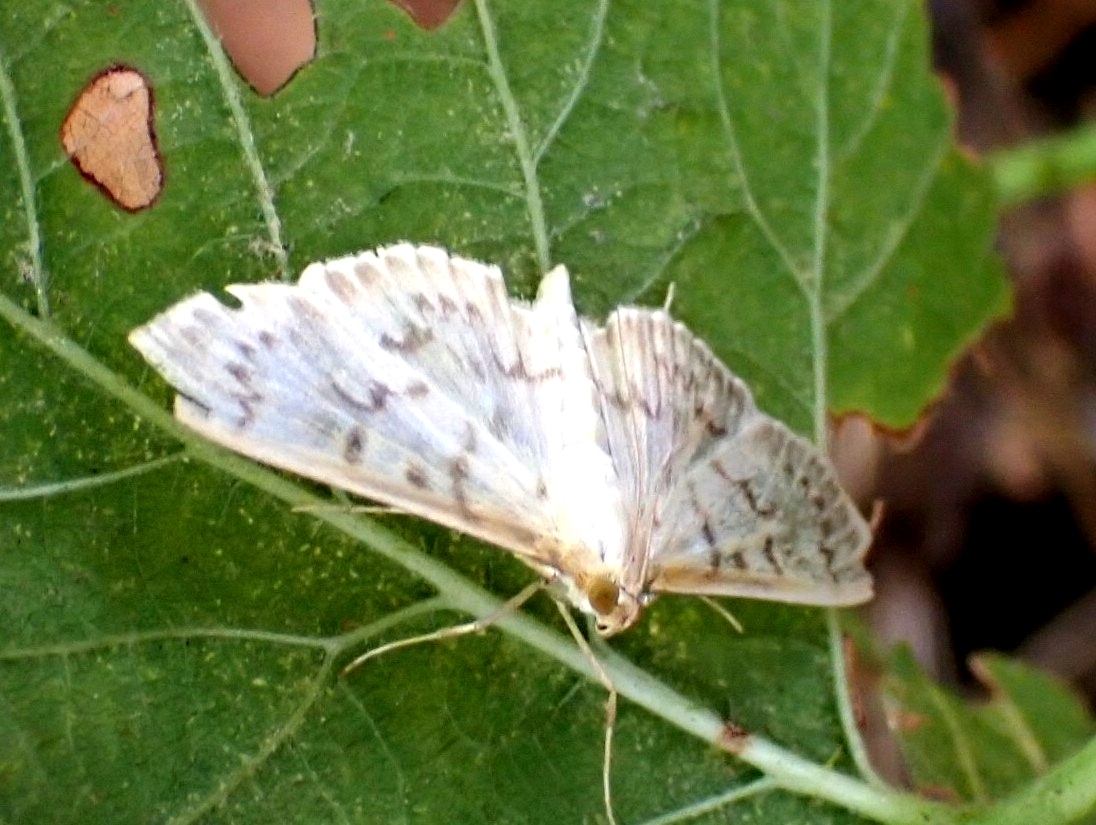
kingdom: Animalia
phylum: Arthropoda
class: Insecta
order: Lepidoptera
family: Crambidae
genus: Patania
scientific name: Patania ruralis
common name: Mother of pearl
